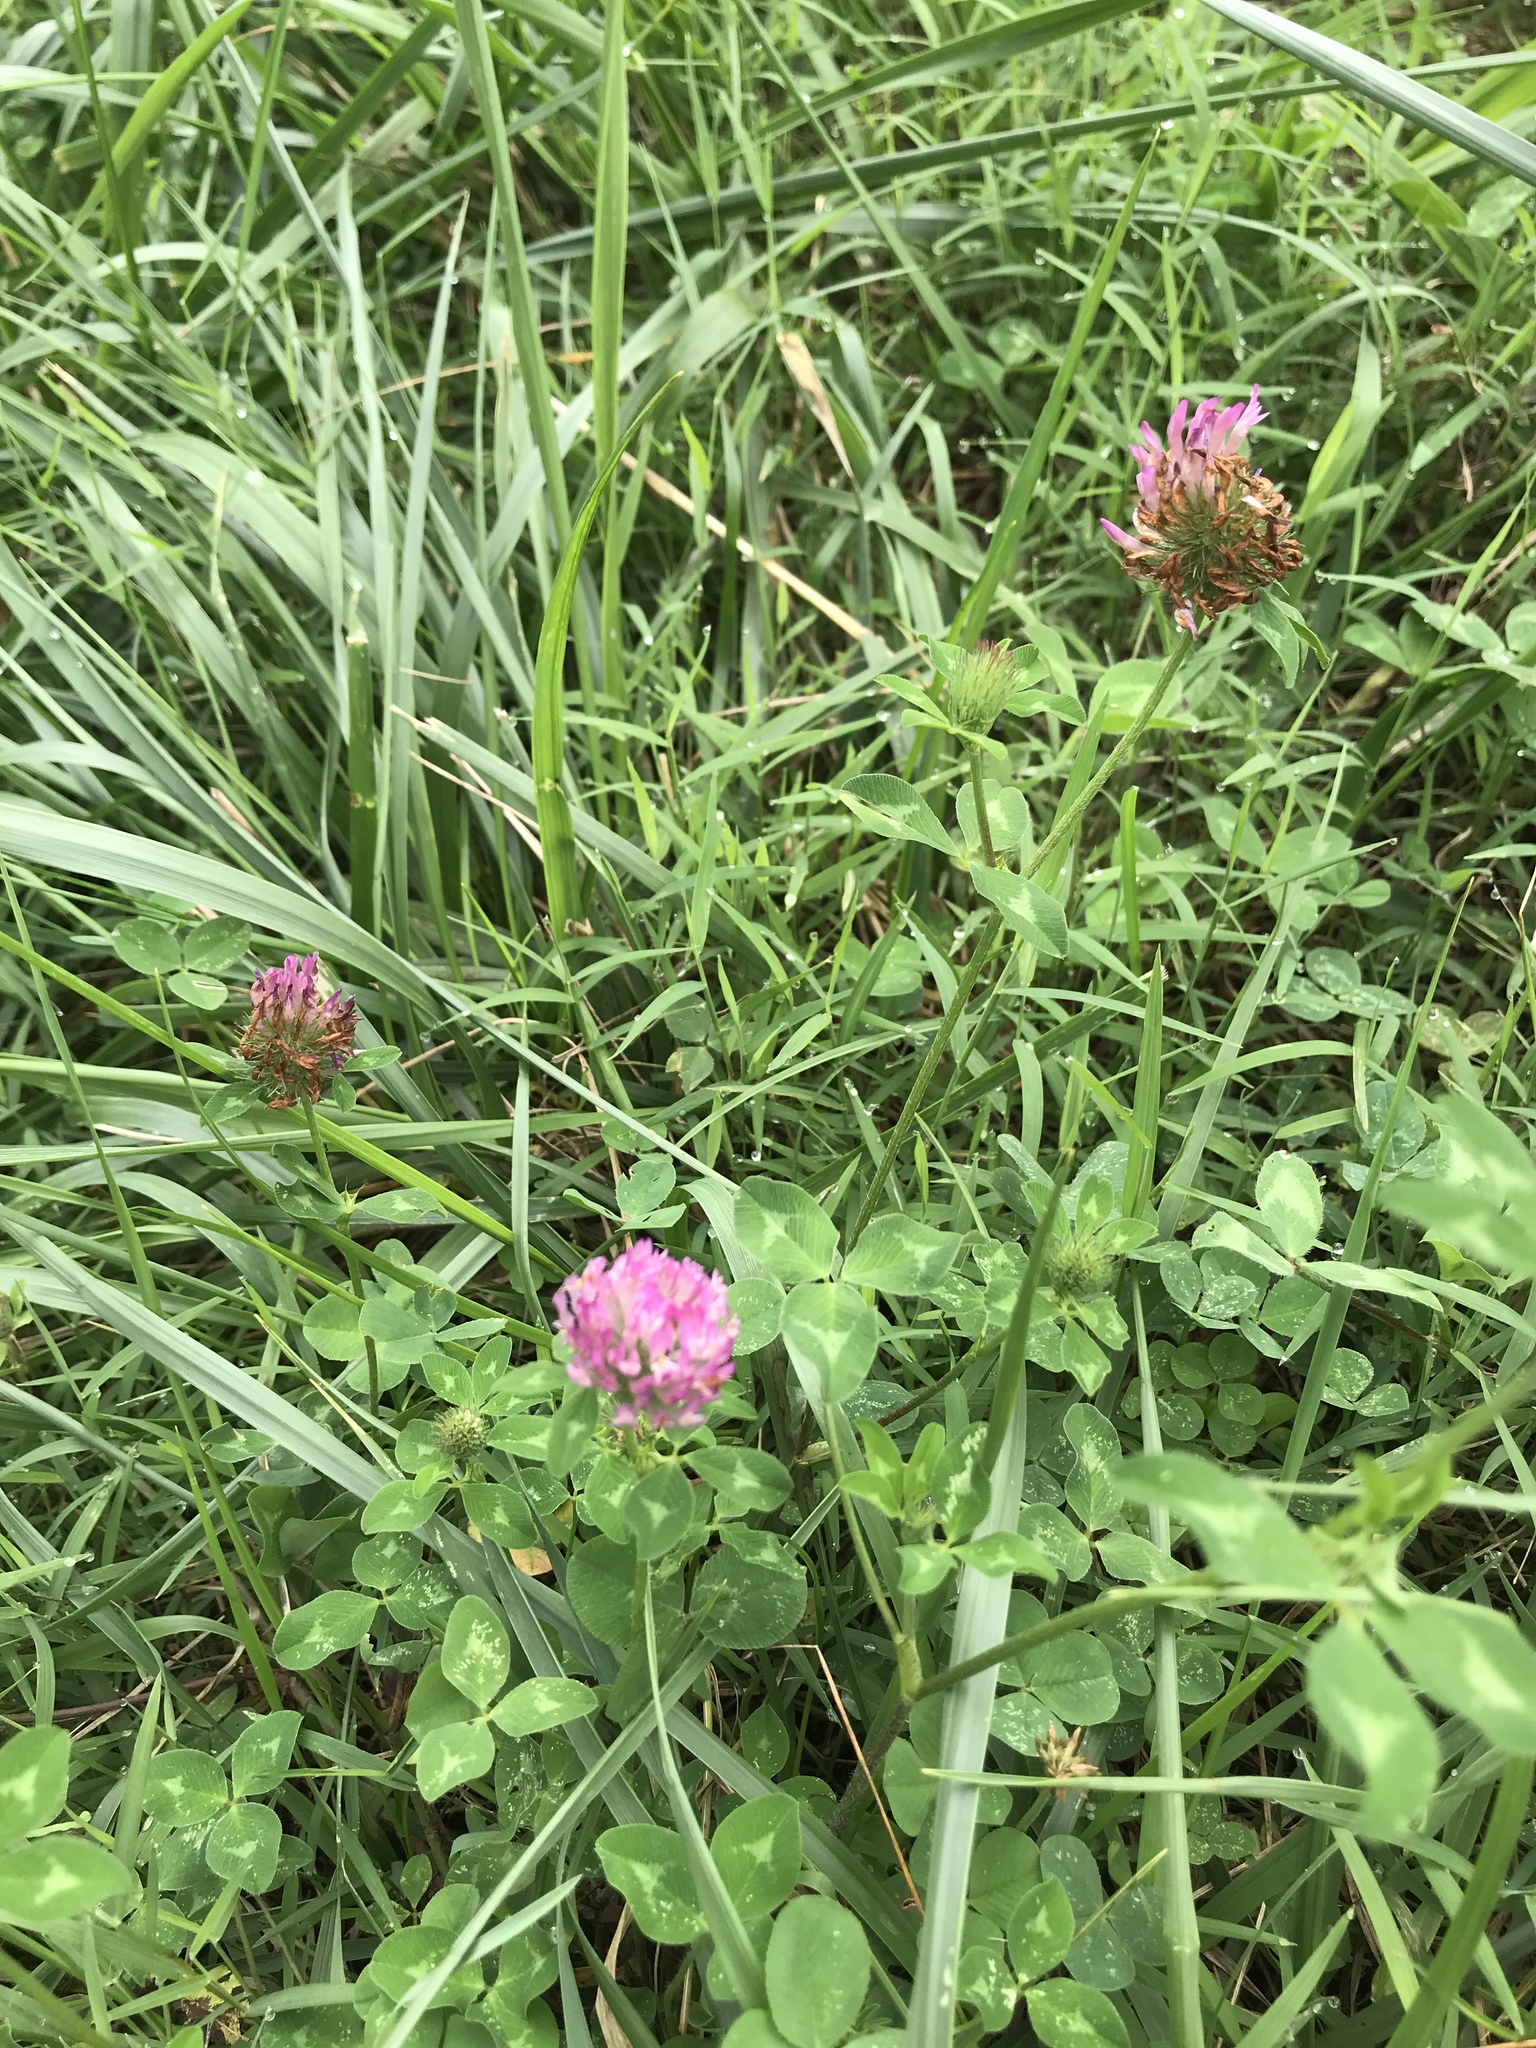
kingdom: Plantae
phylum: Tracheophyta
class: Magnoliopsida
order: Fabales
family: Fabaceae
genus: Trifolium
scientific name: Trifolium pratense
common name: Red clover
